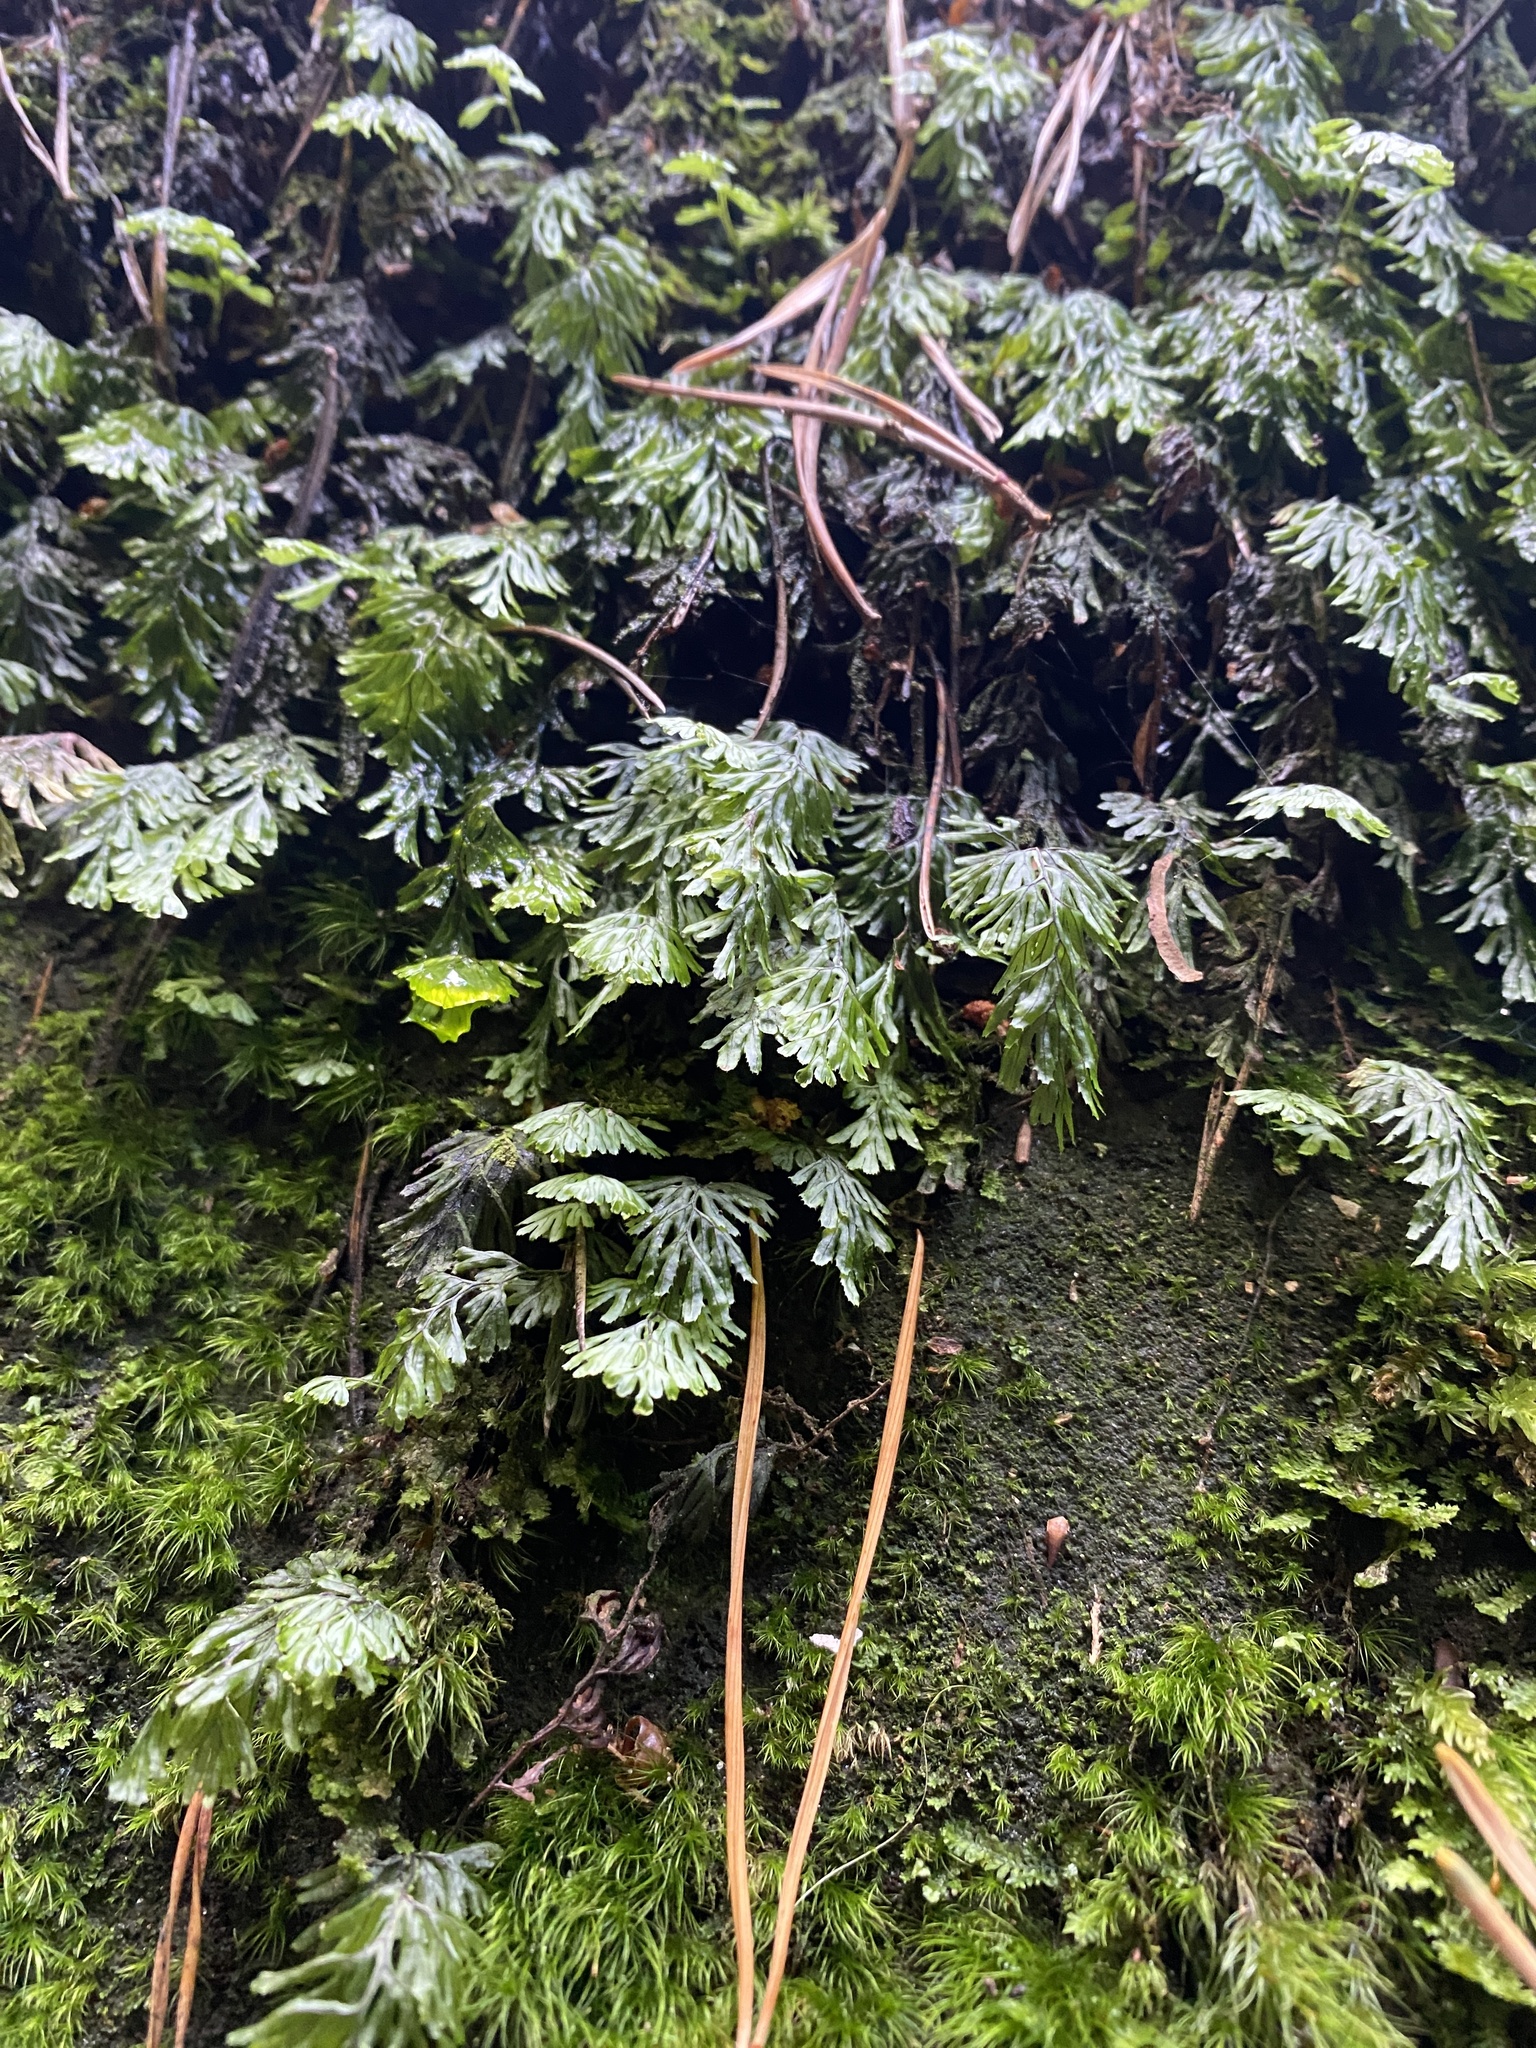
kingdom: Plantae
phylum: Tracheophyta
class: Polypodiopsida
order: Hymenophyllales
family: Hymenophyllaceae
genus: Hymenophyllum
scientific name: Hymenophyllum tunbrigense
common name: Tunbridge filmy fern
